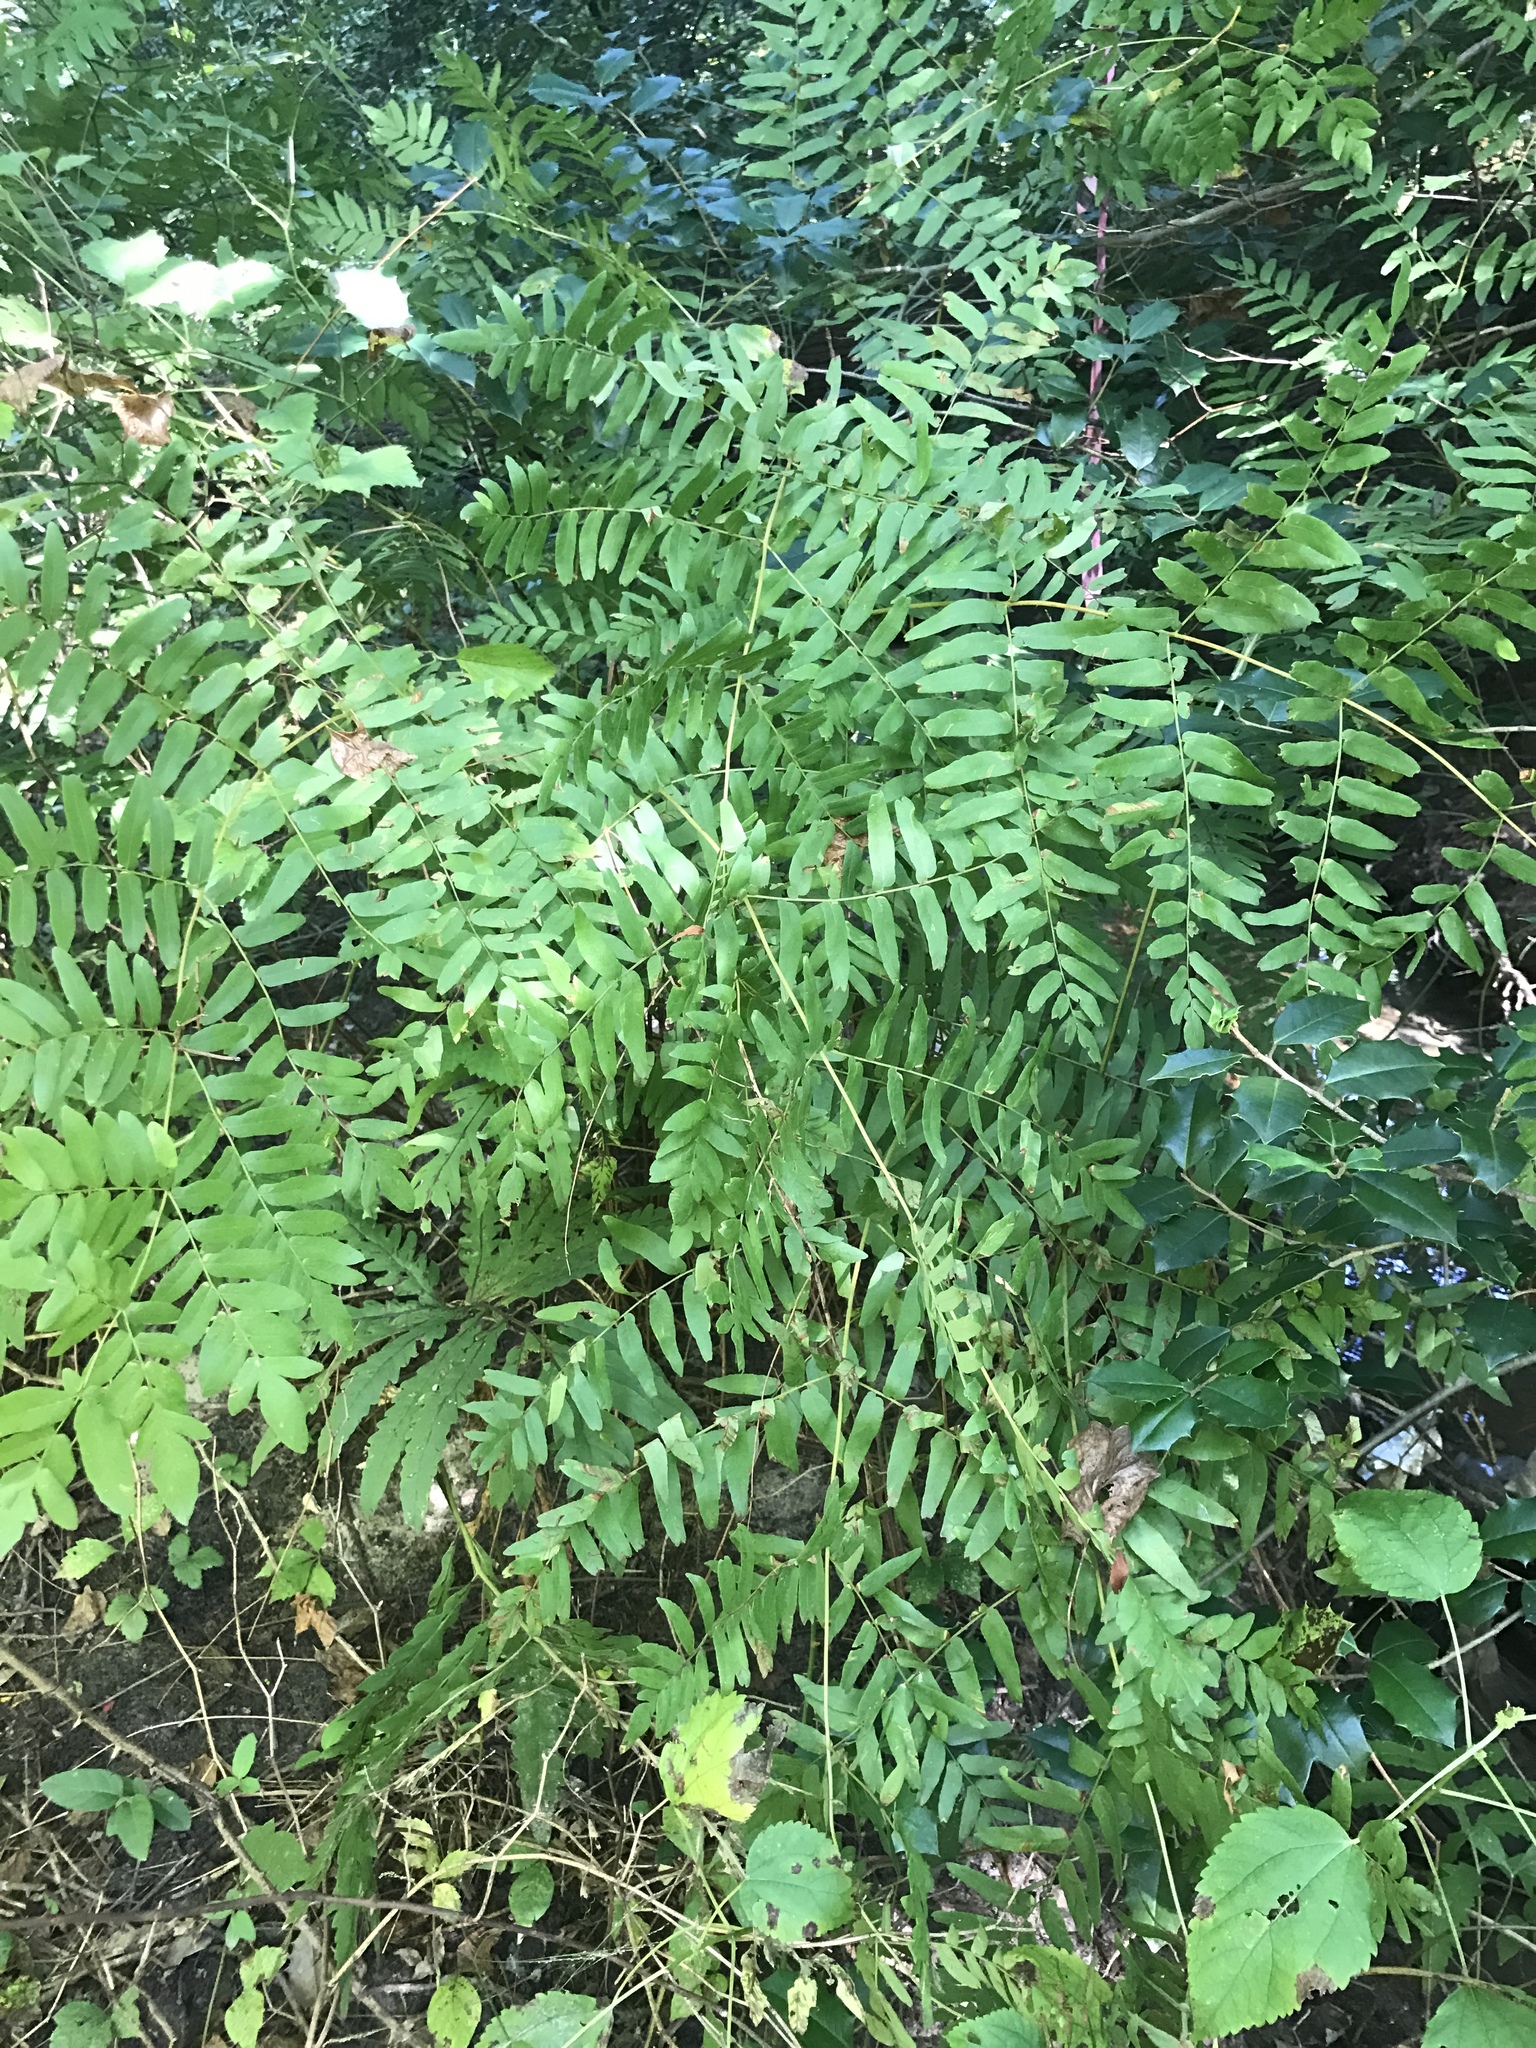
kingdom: Plantae
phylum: Tracheophyta
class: Polypodiopsida
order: Osmundales
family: Osmundaceae
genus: Osmunda
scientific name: Osmunda spectabilis
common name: American royal fern
